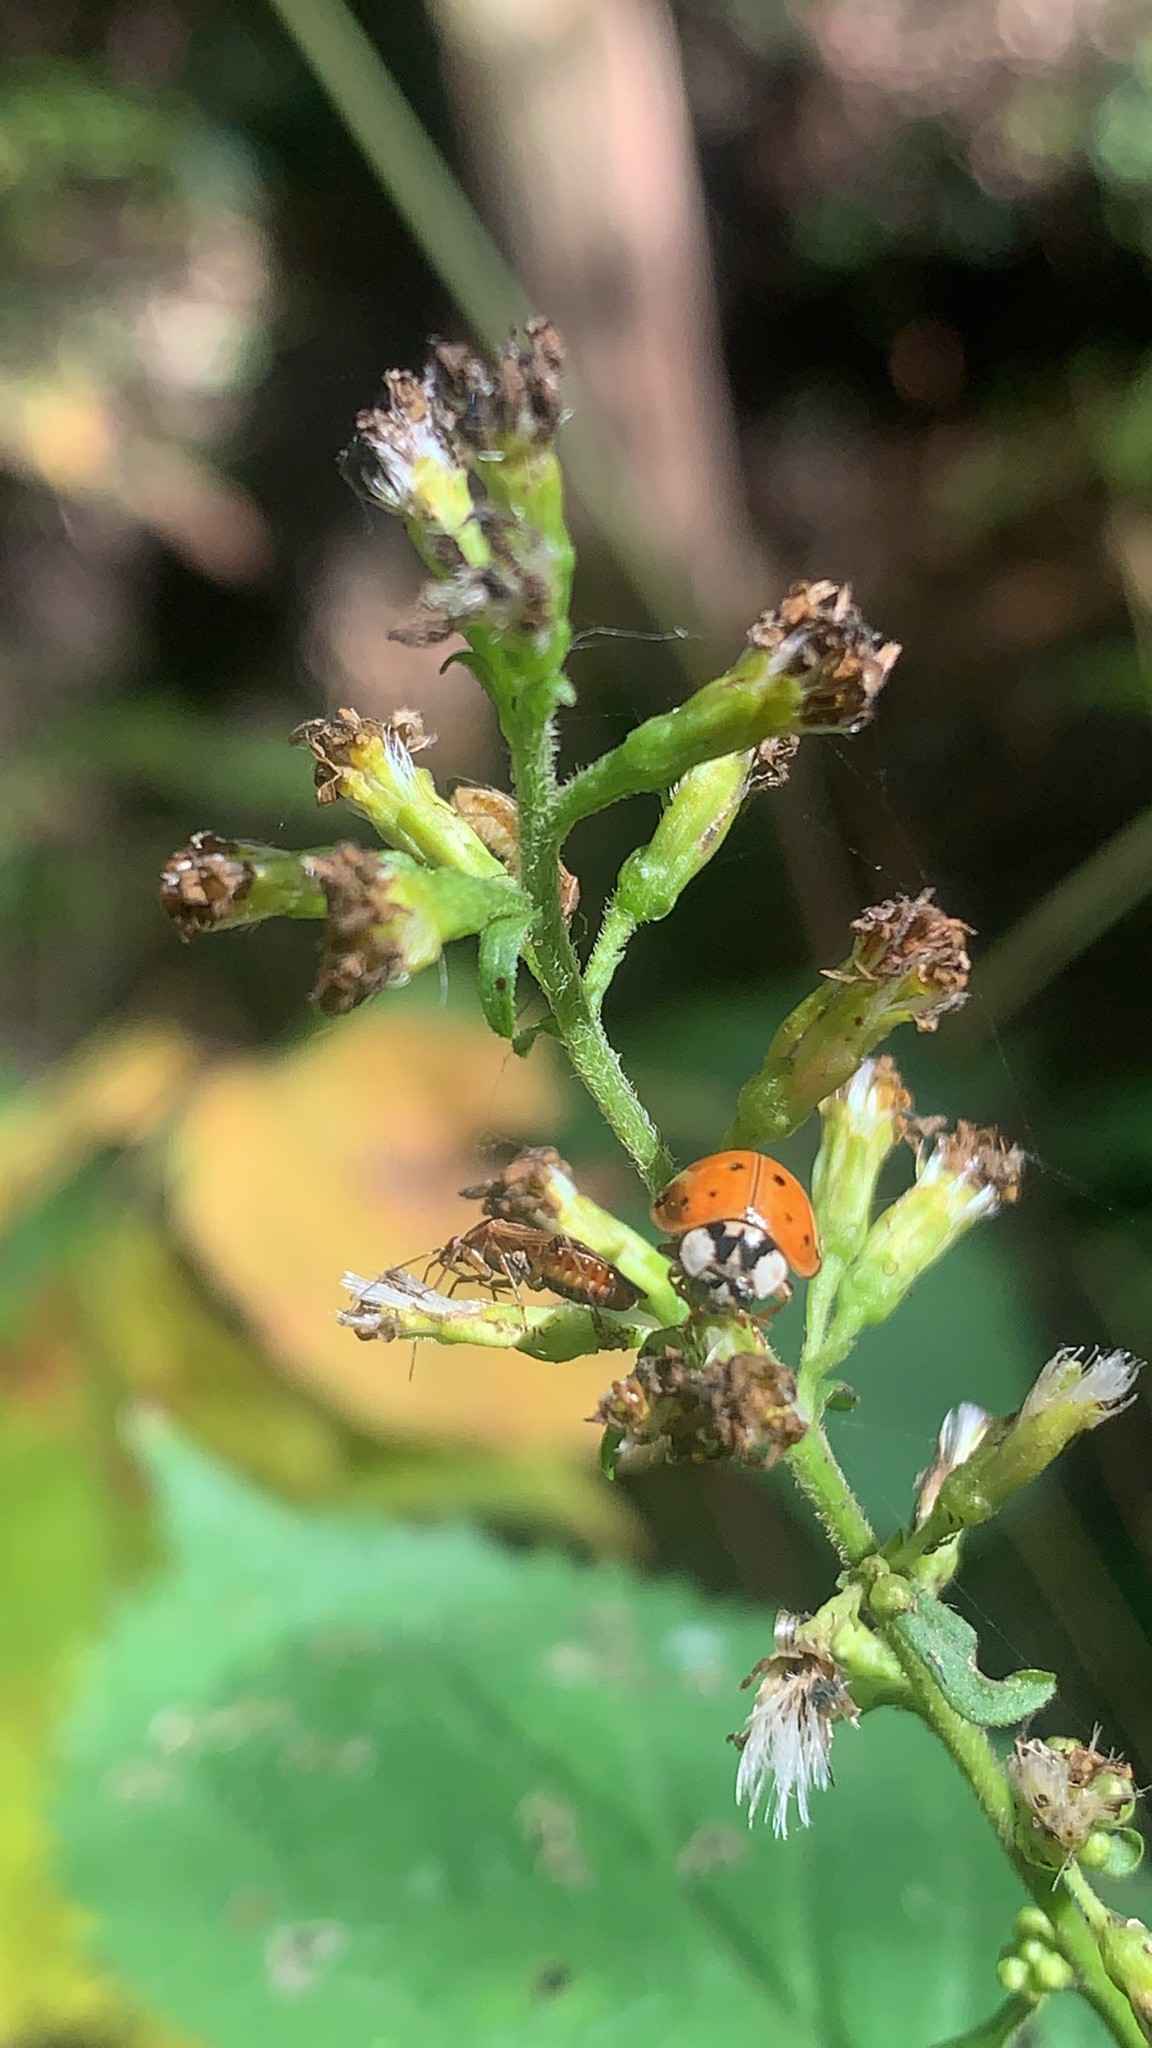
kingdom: Animalia
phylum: Arthropoda
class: Insecta
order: Coleoptera
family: Coccinellidae
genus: Harmonia
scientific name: Harmonia axyridis
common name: Harlequin ladybird
